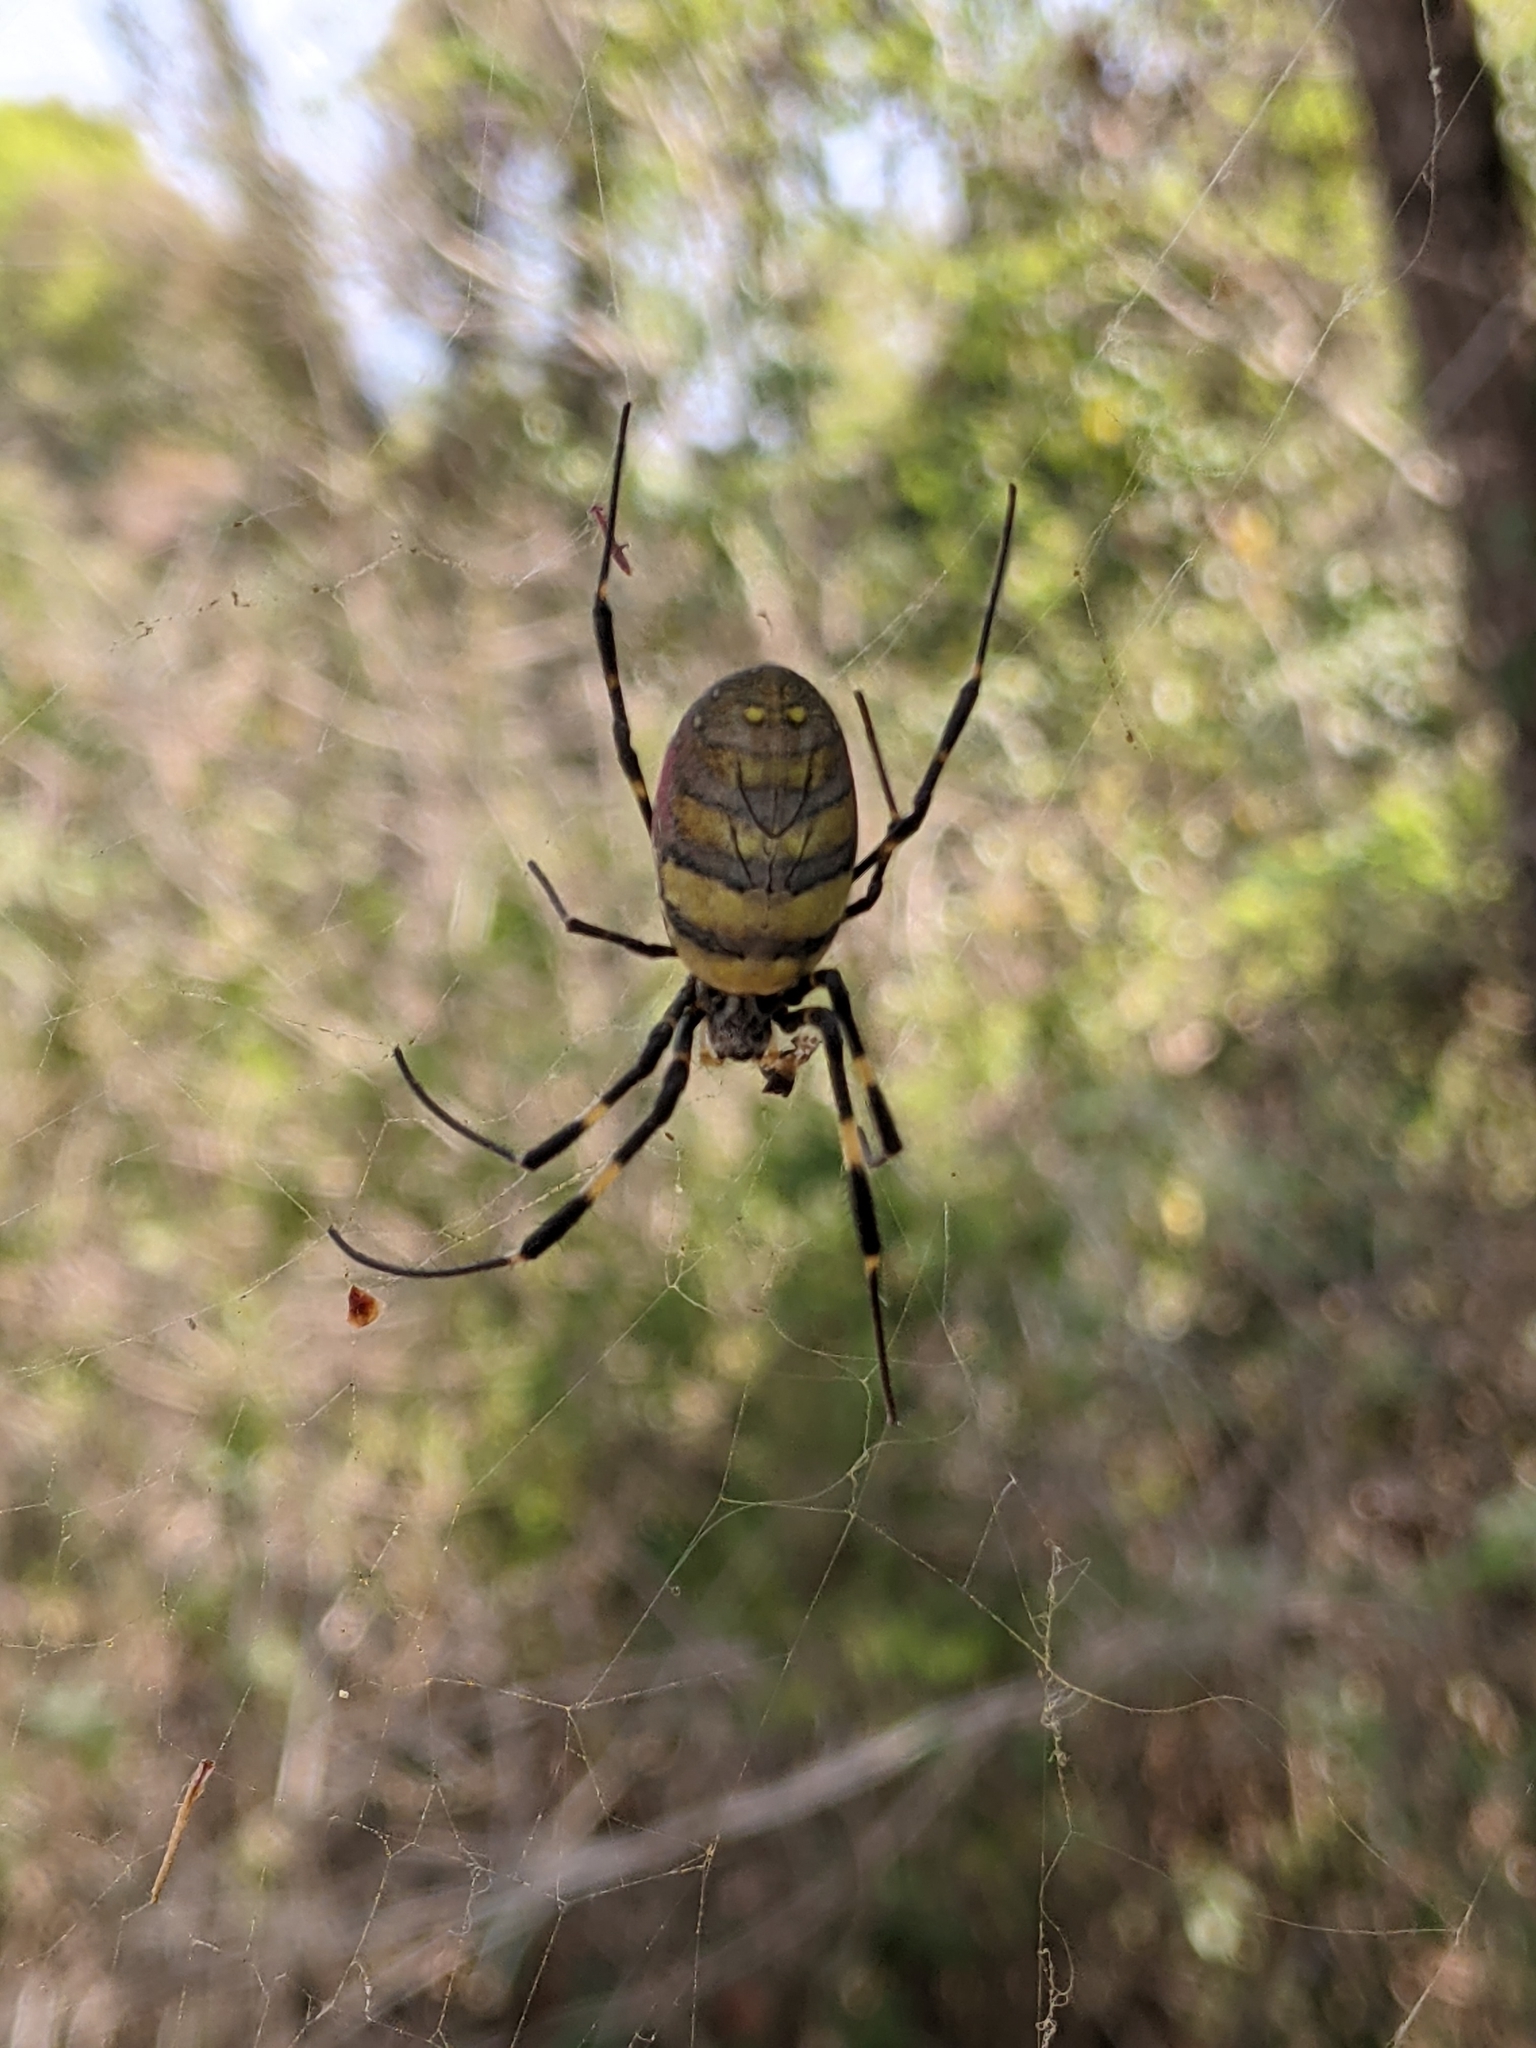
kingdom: Animalia
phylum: Arthropoda
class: Arachnida
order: Araneae
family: Araneidae
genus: Trichonephila
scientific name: Trichonephila clavata
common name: Jorō spider
